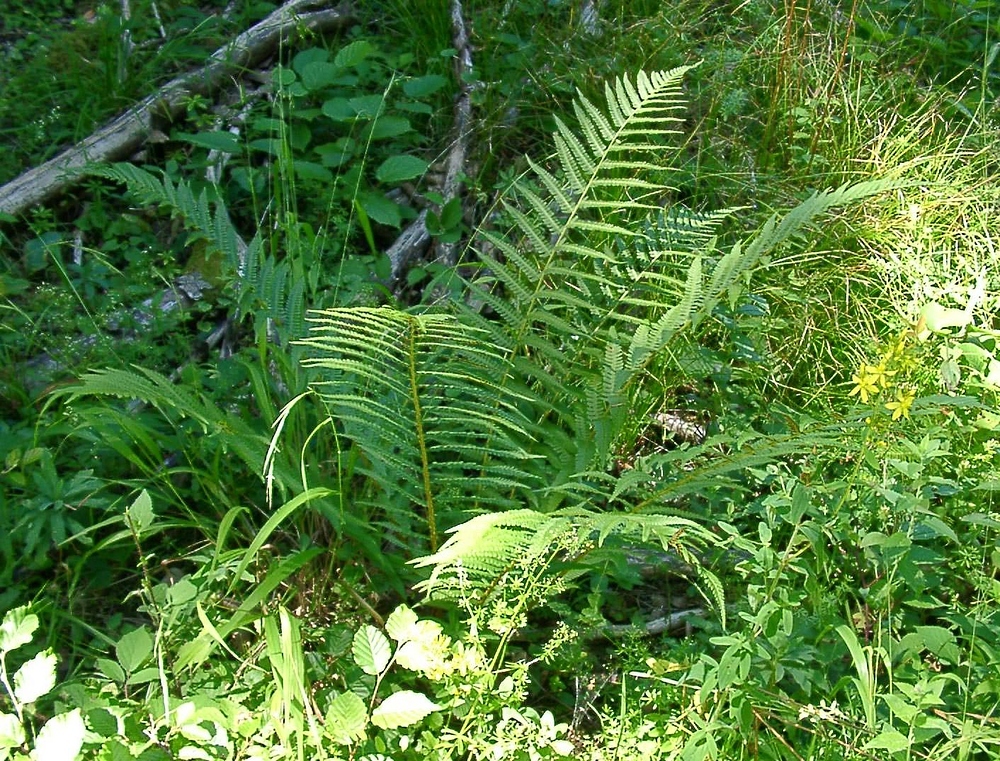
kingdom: Plantae
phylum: Tracheophyta
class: Polypodiopsida
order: Polypodiales
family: Dryopteridaceae
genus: Dryopteris
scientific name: Dryopteris filix-mas
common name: Male fern
